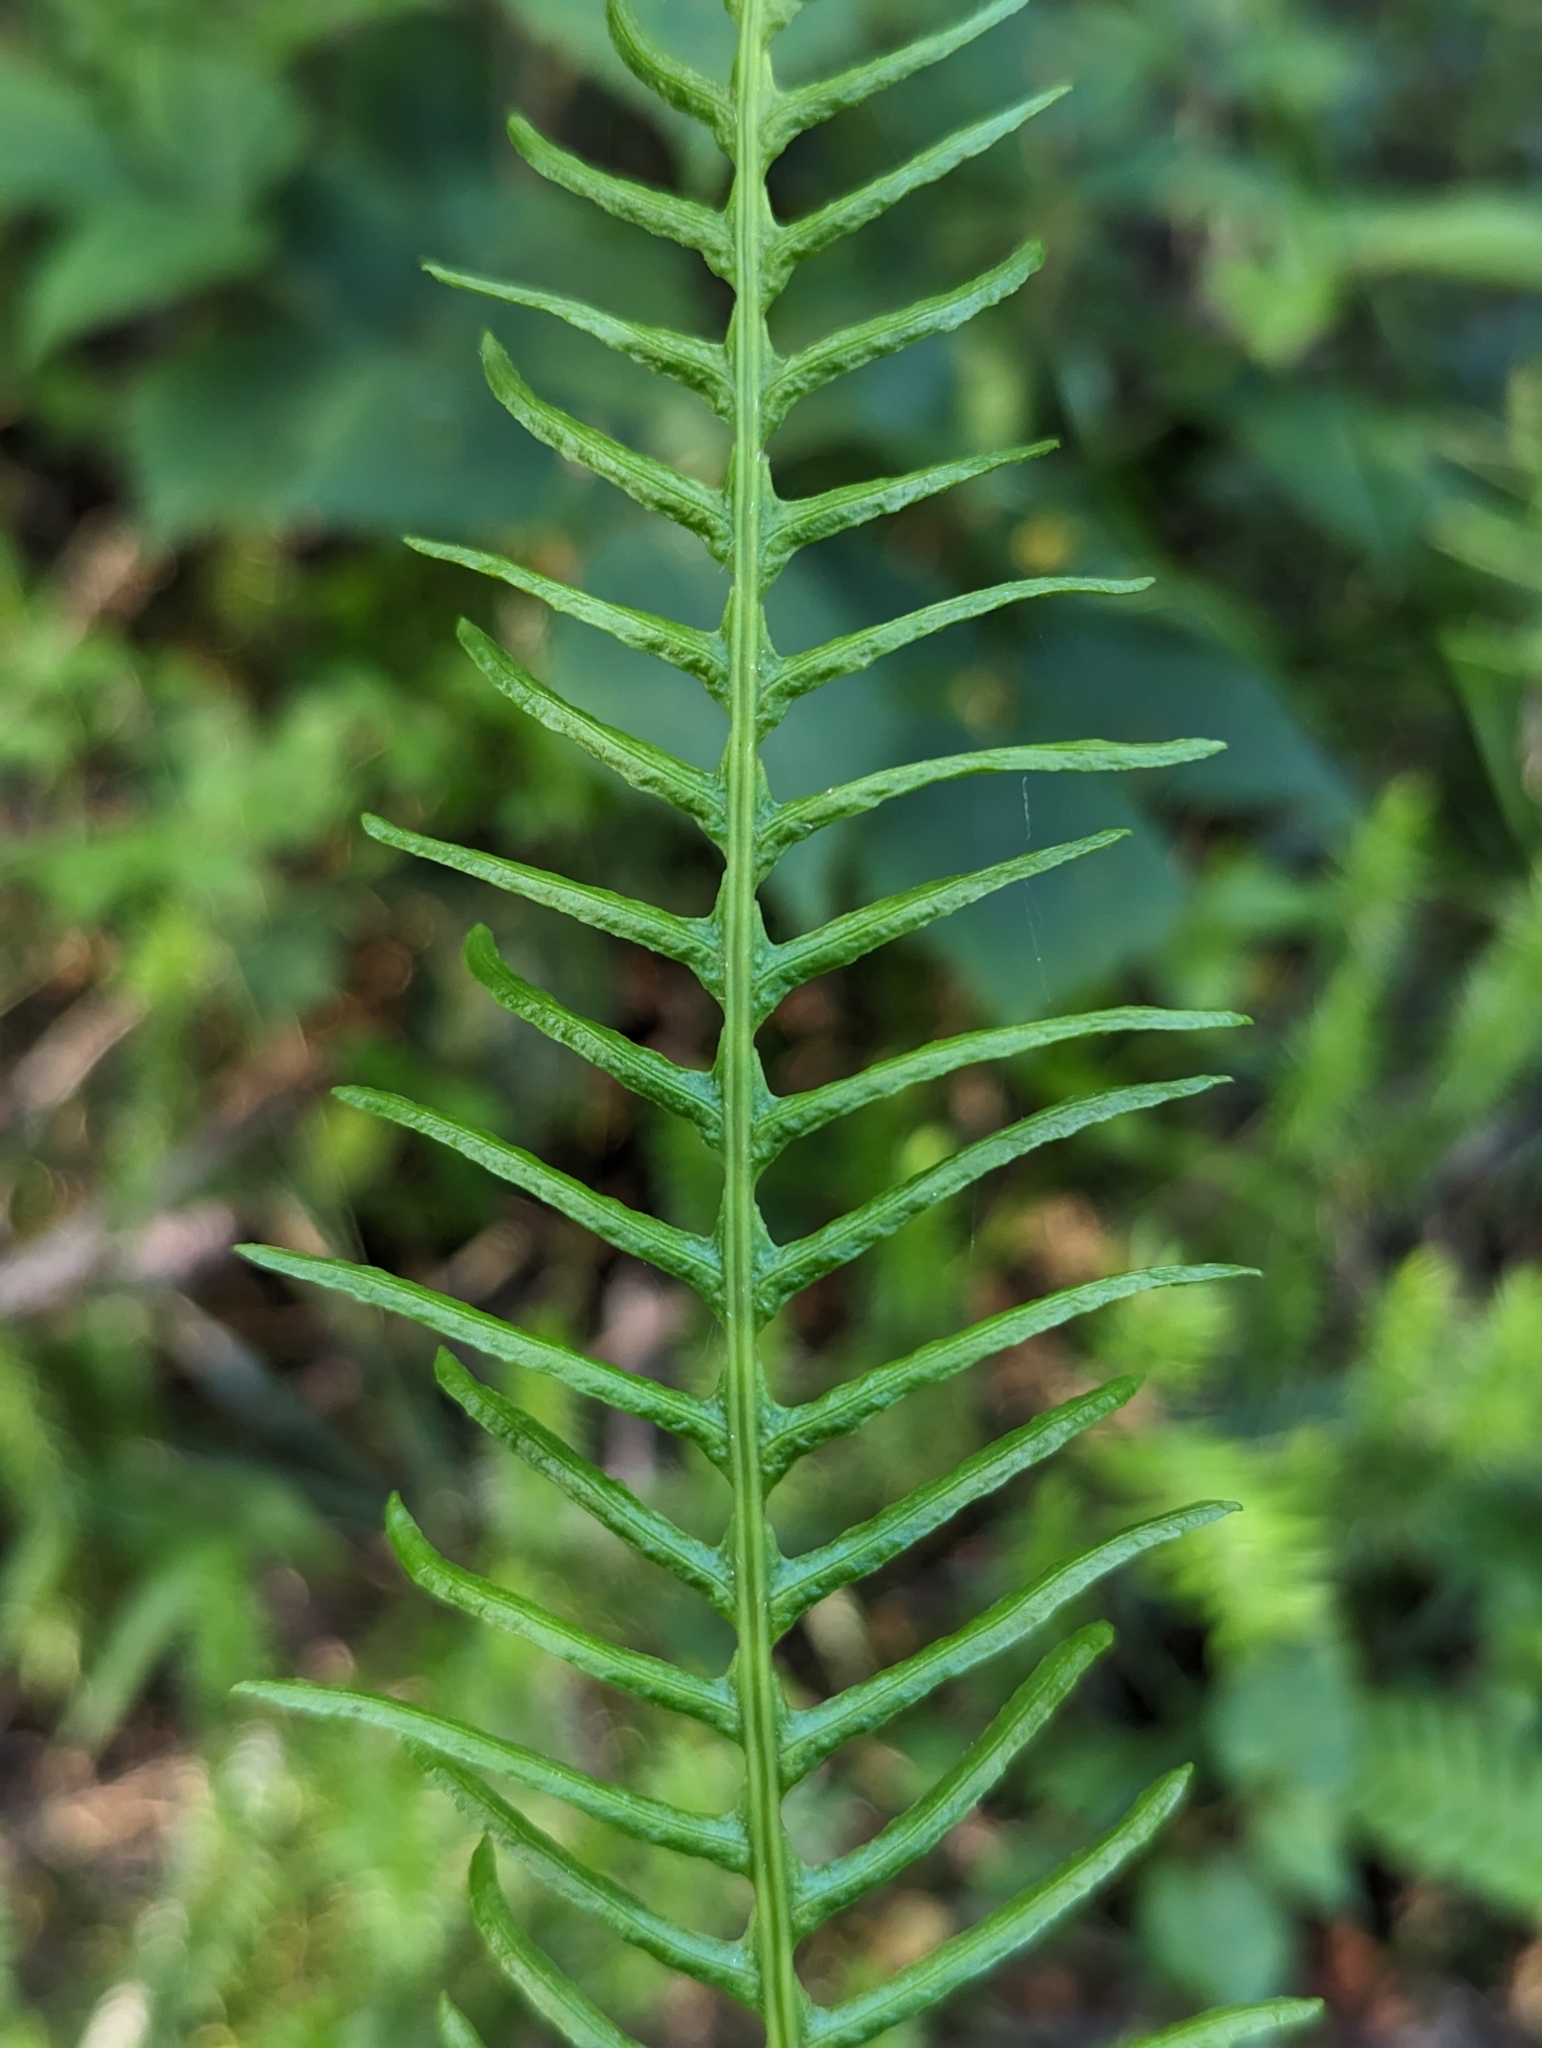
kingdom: Plantae
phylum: Tracheophyta
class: Polypodiopsida
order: Polypodiales
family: Blechnaceae
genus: Struthiopteris
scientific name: Struthiopteris spicant
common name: Deer fern
